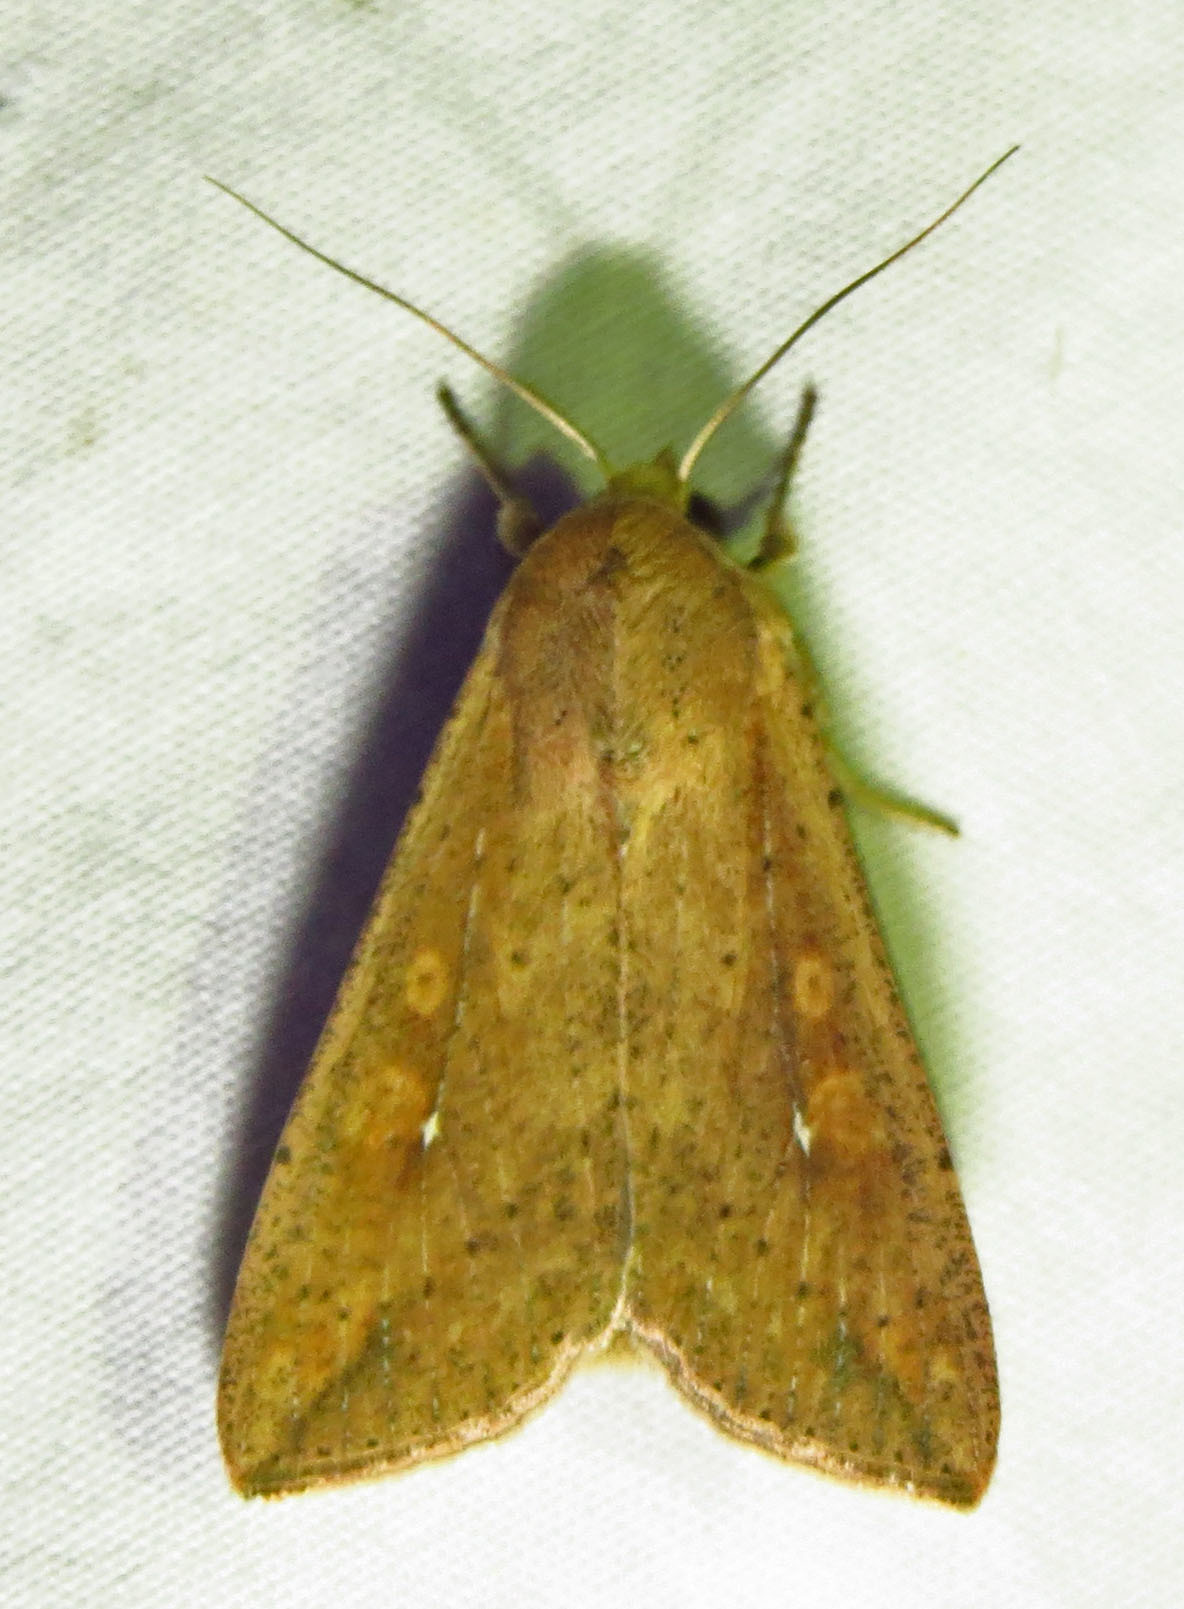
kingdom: Animalia
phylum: Arthropoda
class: Insecta
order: Lepidoptera
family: Noctuidae
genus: Mythimna
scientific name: Mythimna unipuncta
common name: White-speck
